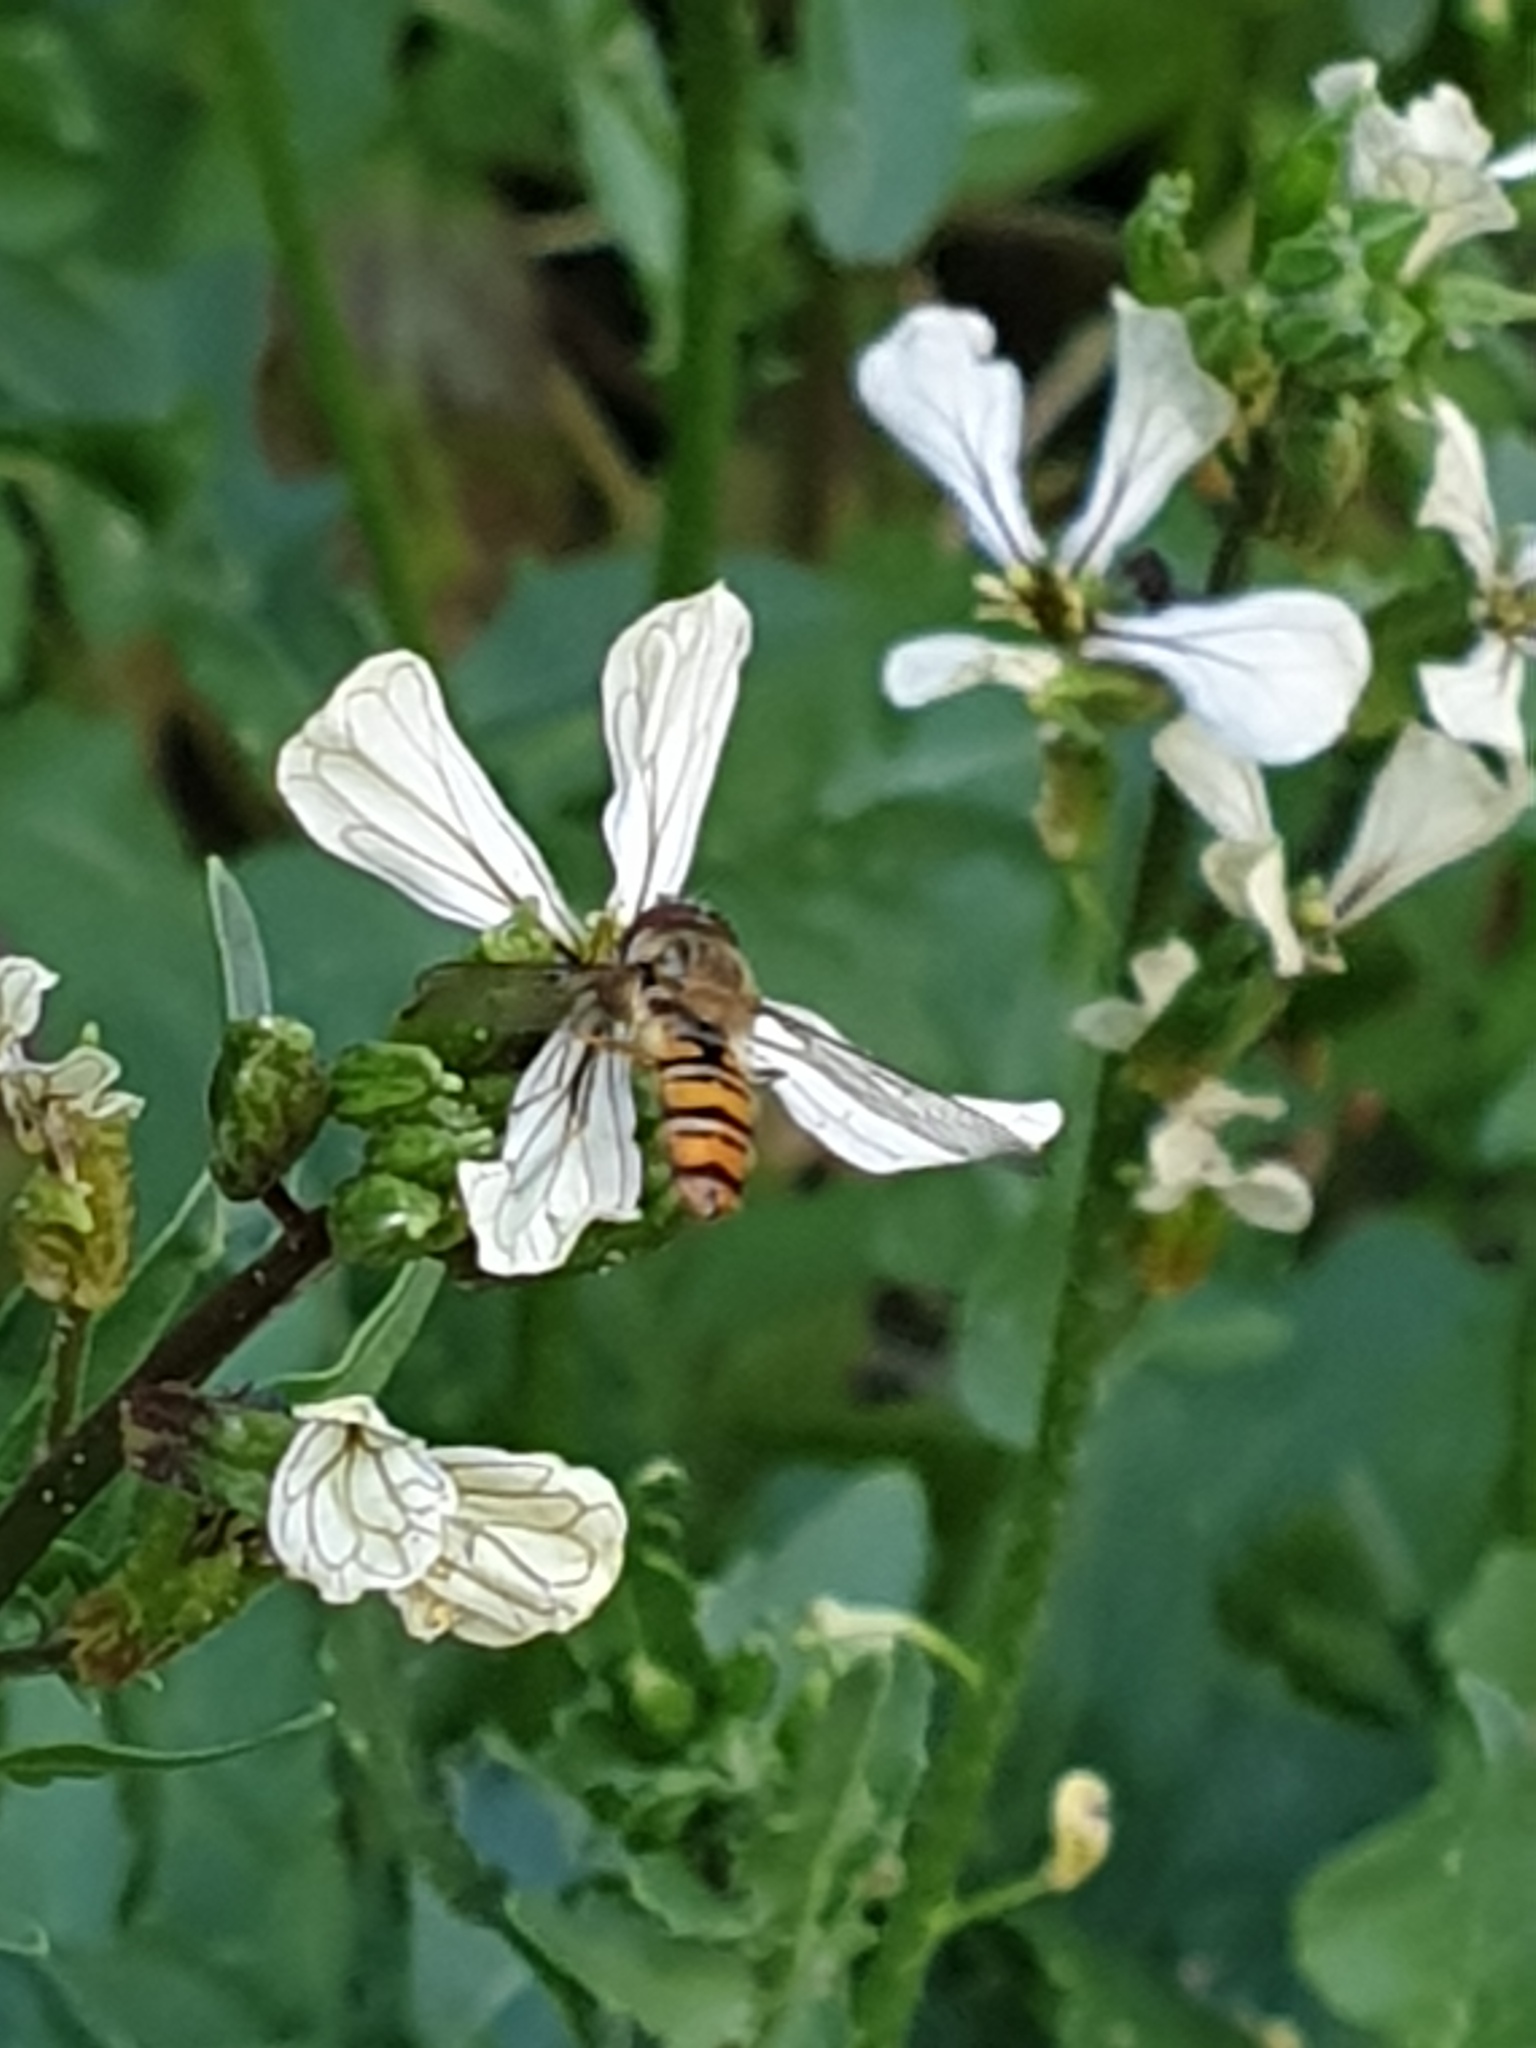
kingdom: Animalia
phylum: Arthropoda
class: Insecta
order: Diptera
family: Syrphidae
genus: Episyrphus
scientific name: Episyrphus balteatus
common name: Marmalade hoverfly
